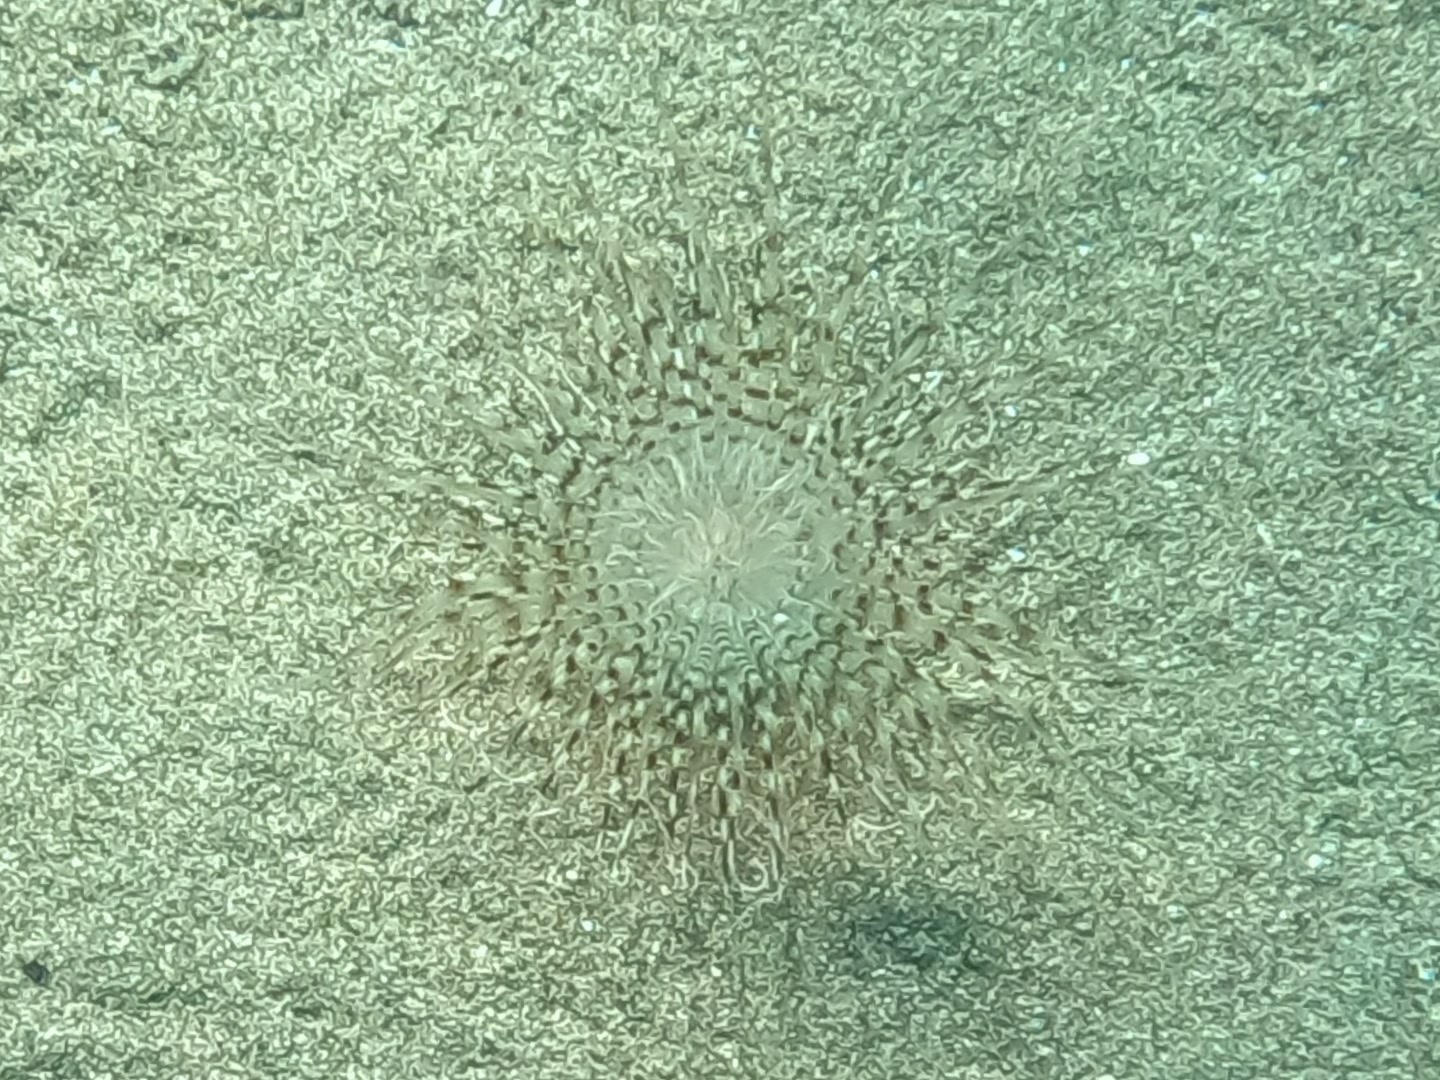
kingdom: Animalia
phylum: Cnidaria
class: Anthozoa
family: Cerianthidae
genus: Pachycerianthus
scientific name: Pachycerianthus solitarius
